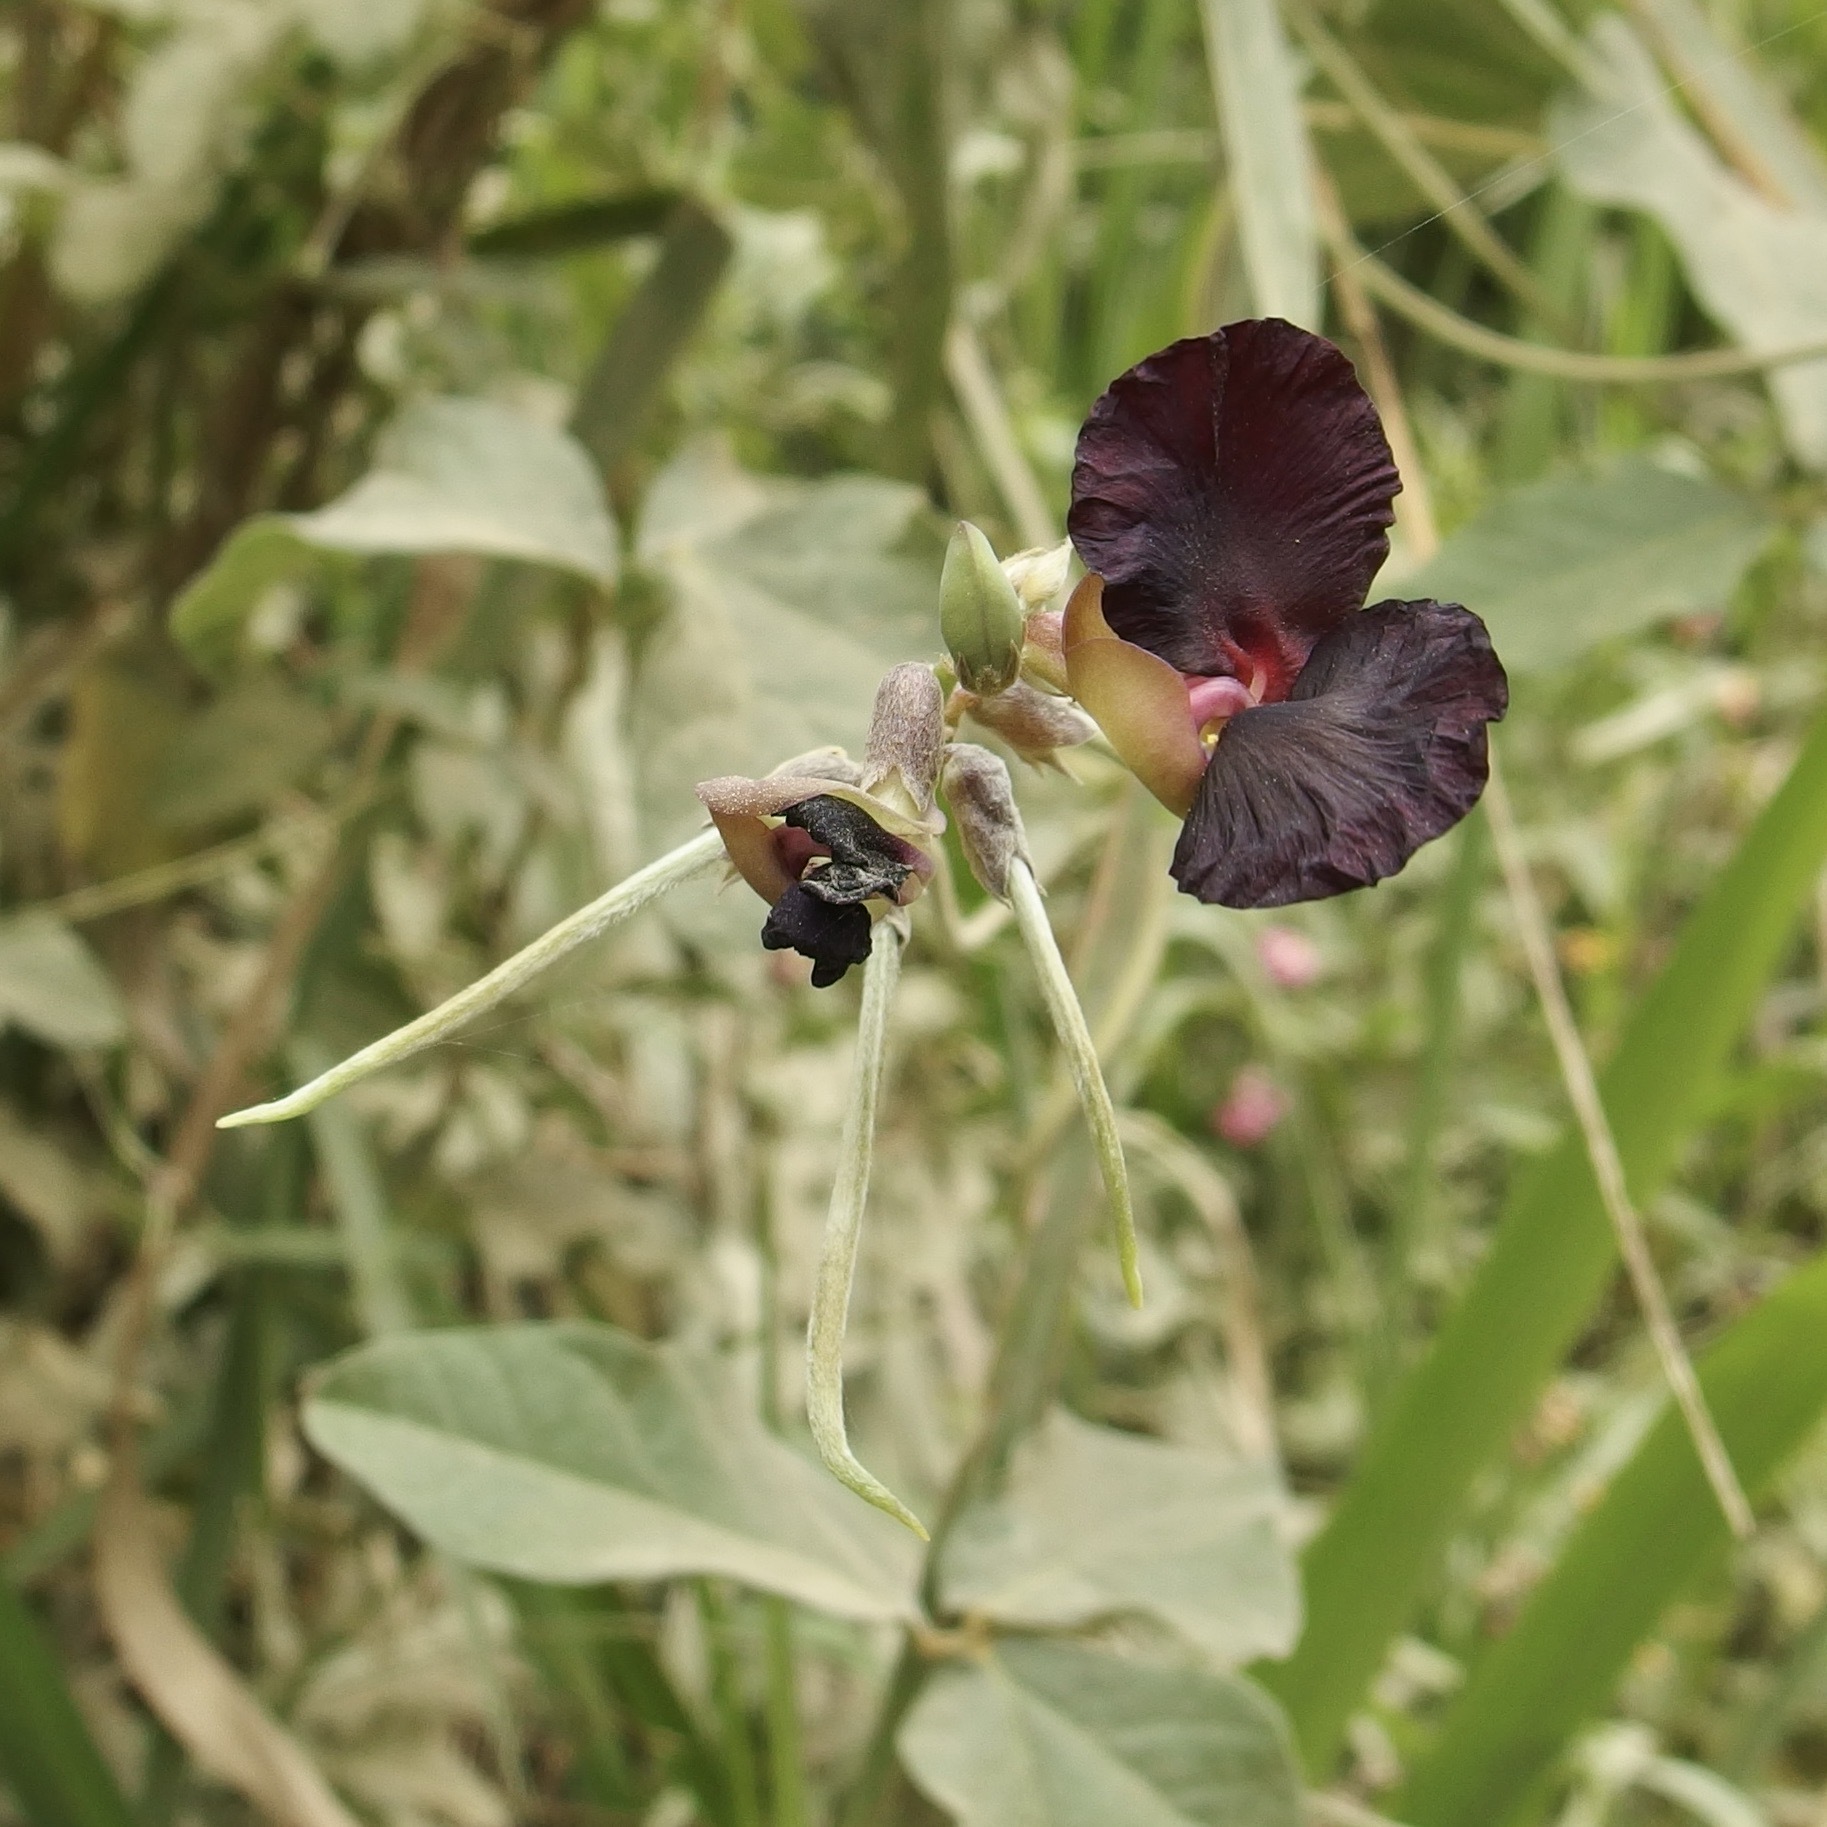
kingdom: Plantae
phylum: Tracheophyta
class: Magnoliopsida
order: Fabales
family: Fabaceae
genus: Macroptilium
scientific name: Macroptilium atropurpureum
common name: Purple bushbean
